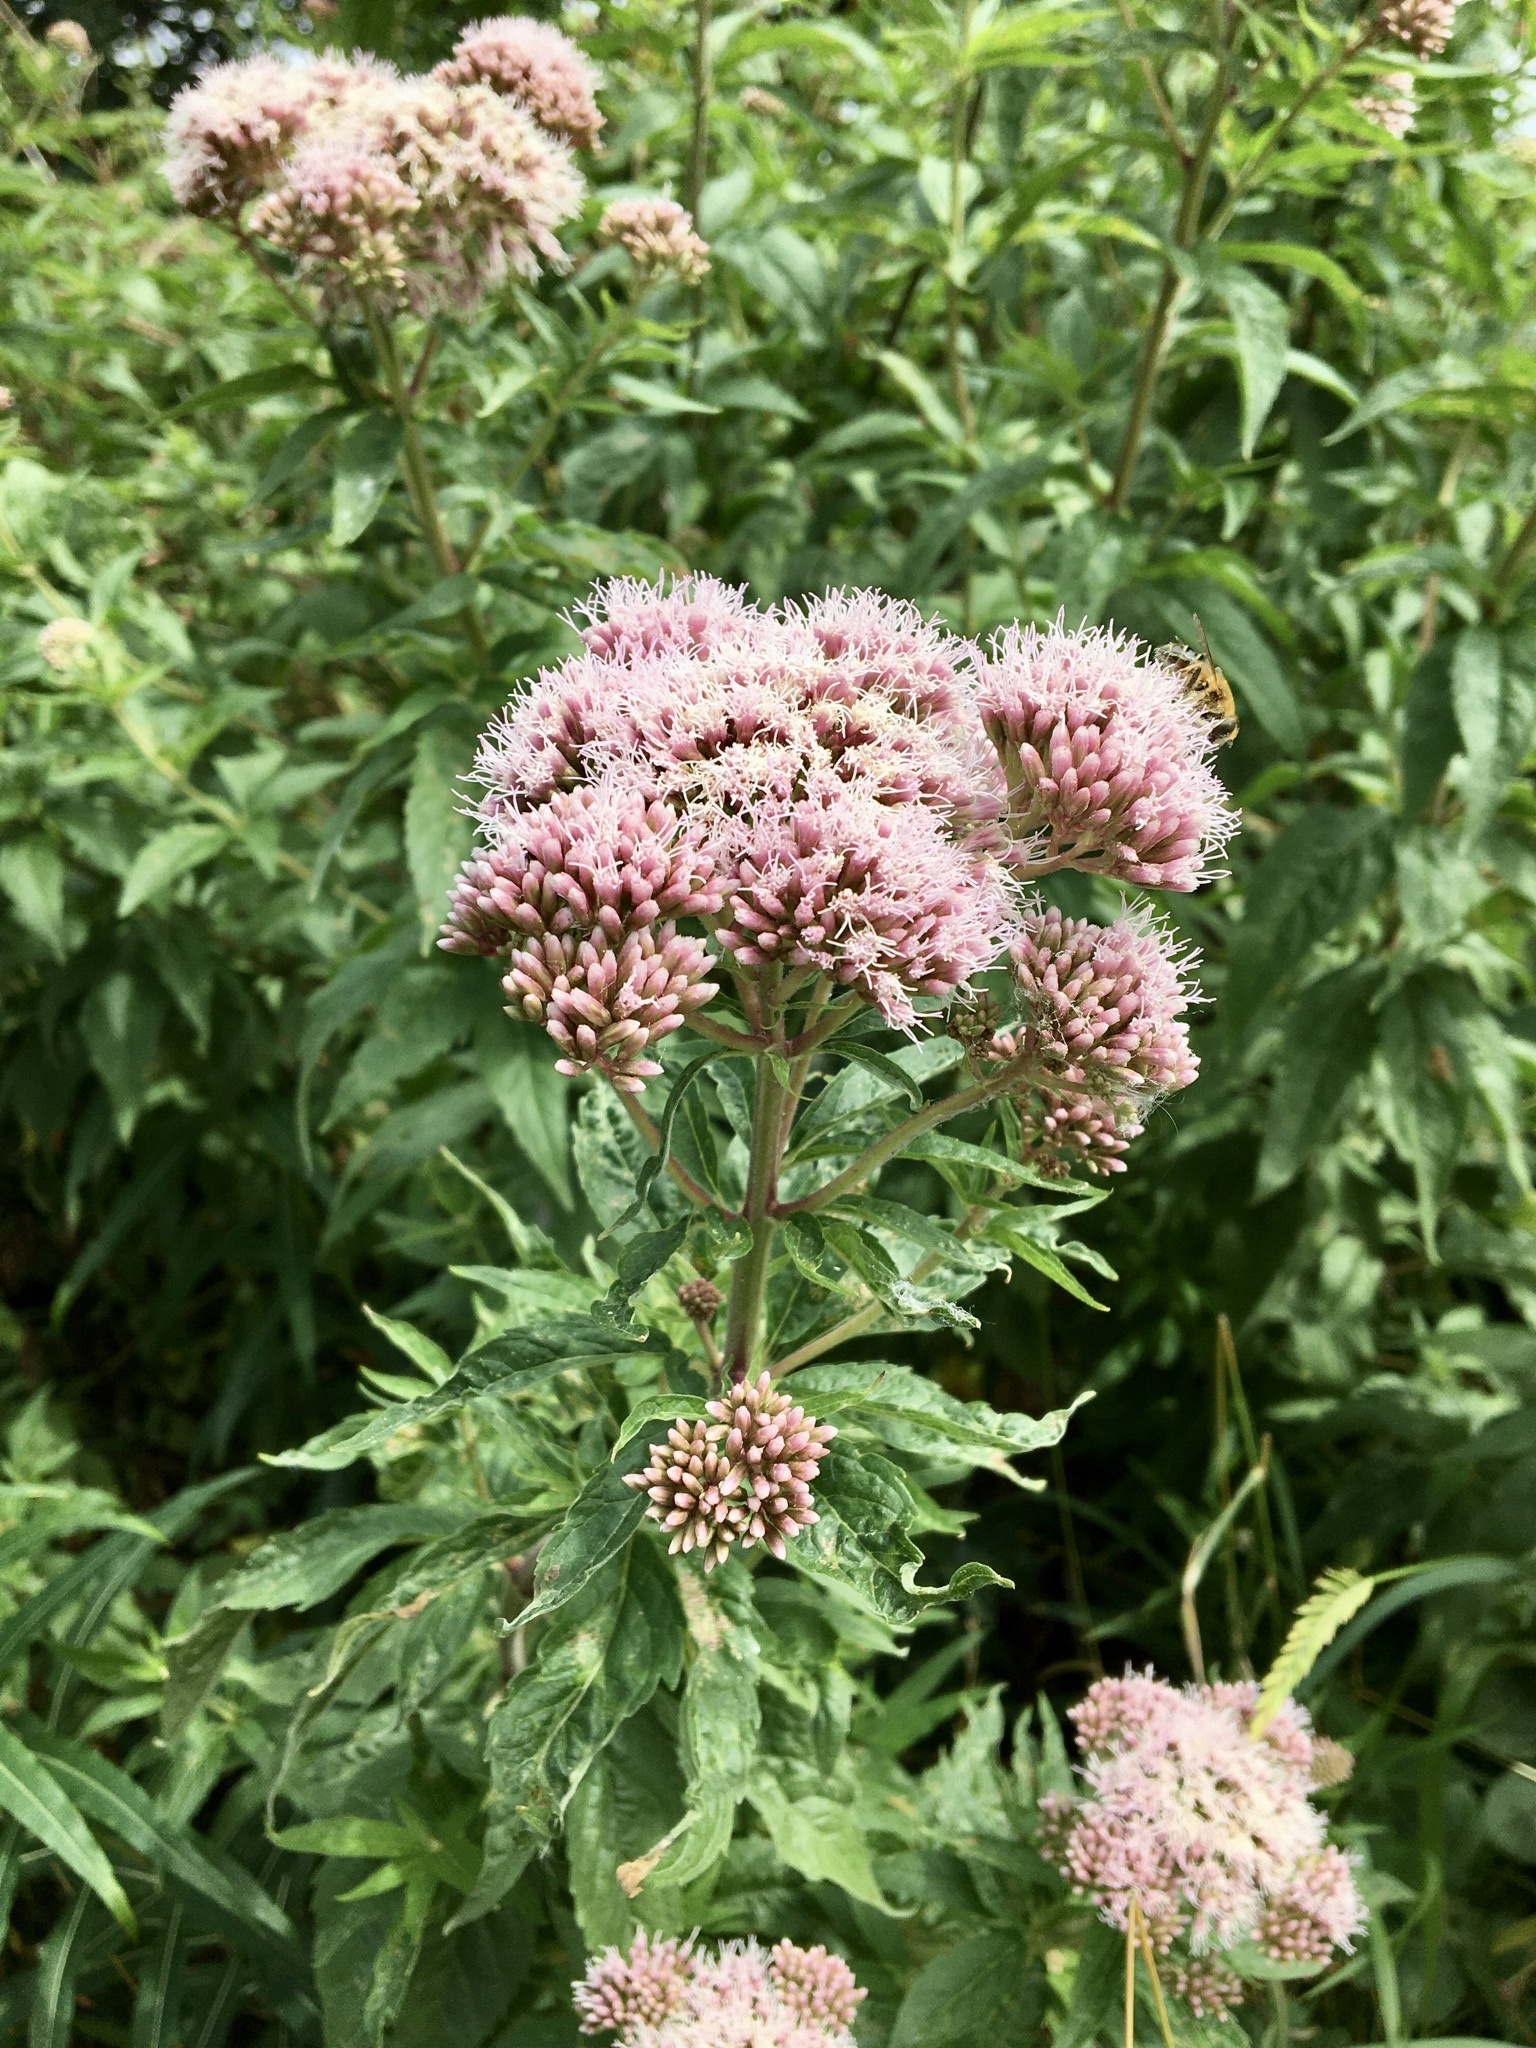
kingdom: Plantae
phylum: Tracheophyta
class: Magnoliopsida
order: Asterales
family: Asteraceae
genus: Eupatorium
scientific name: Eupatorium cannabinum
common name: Hemp-agrimony
